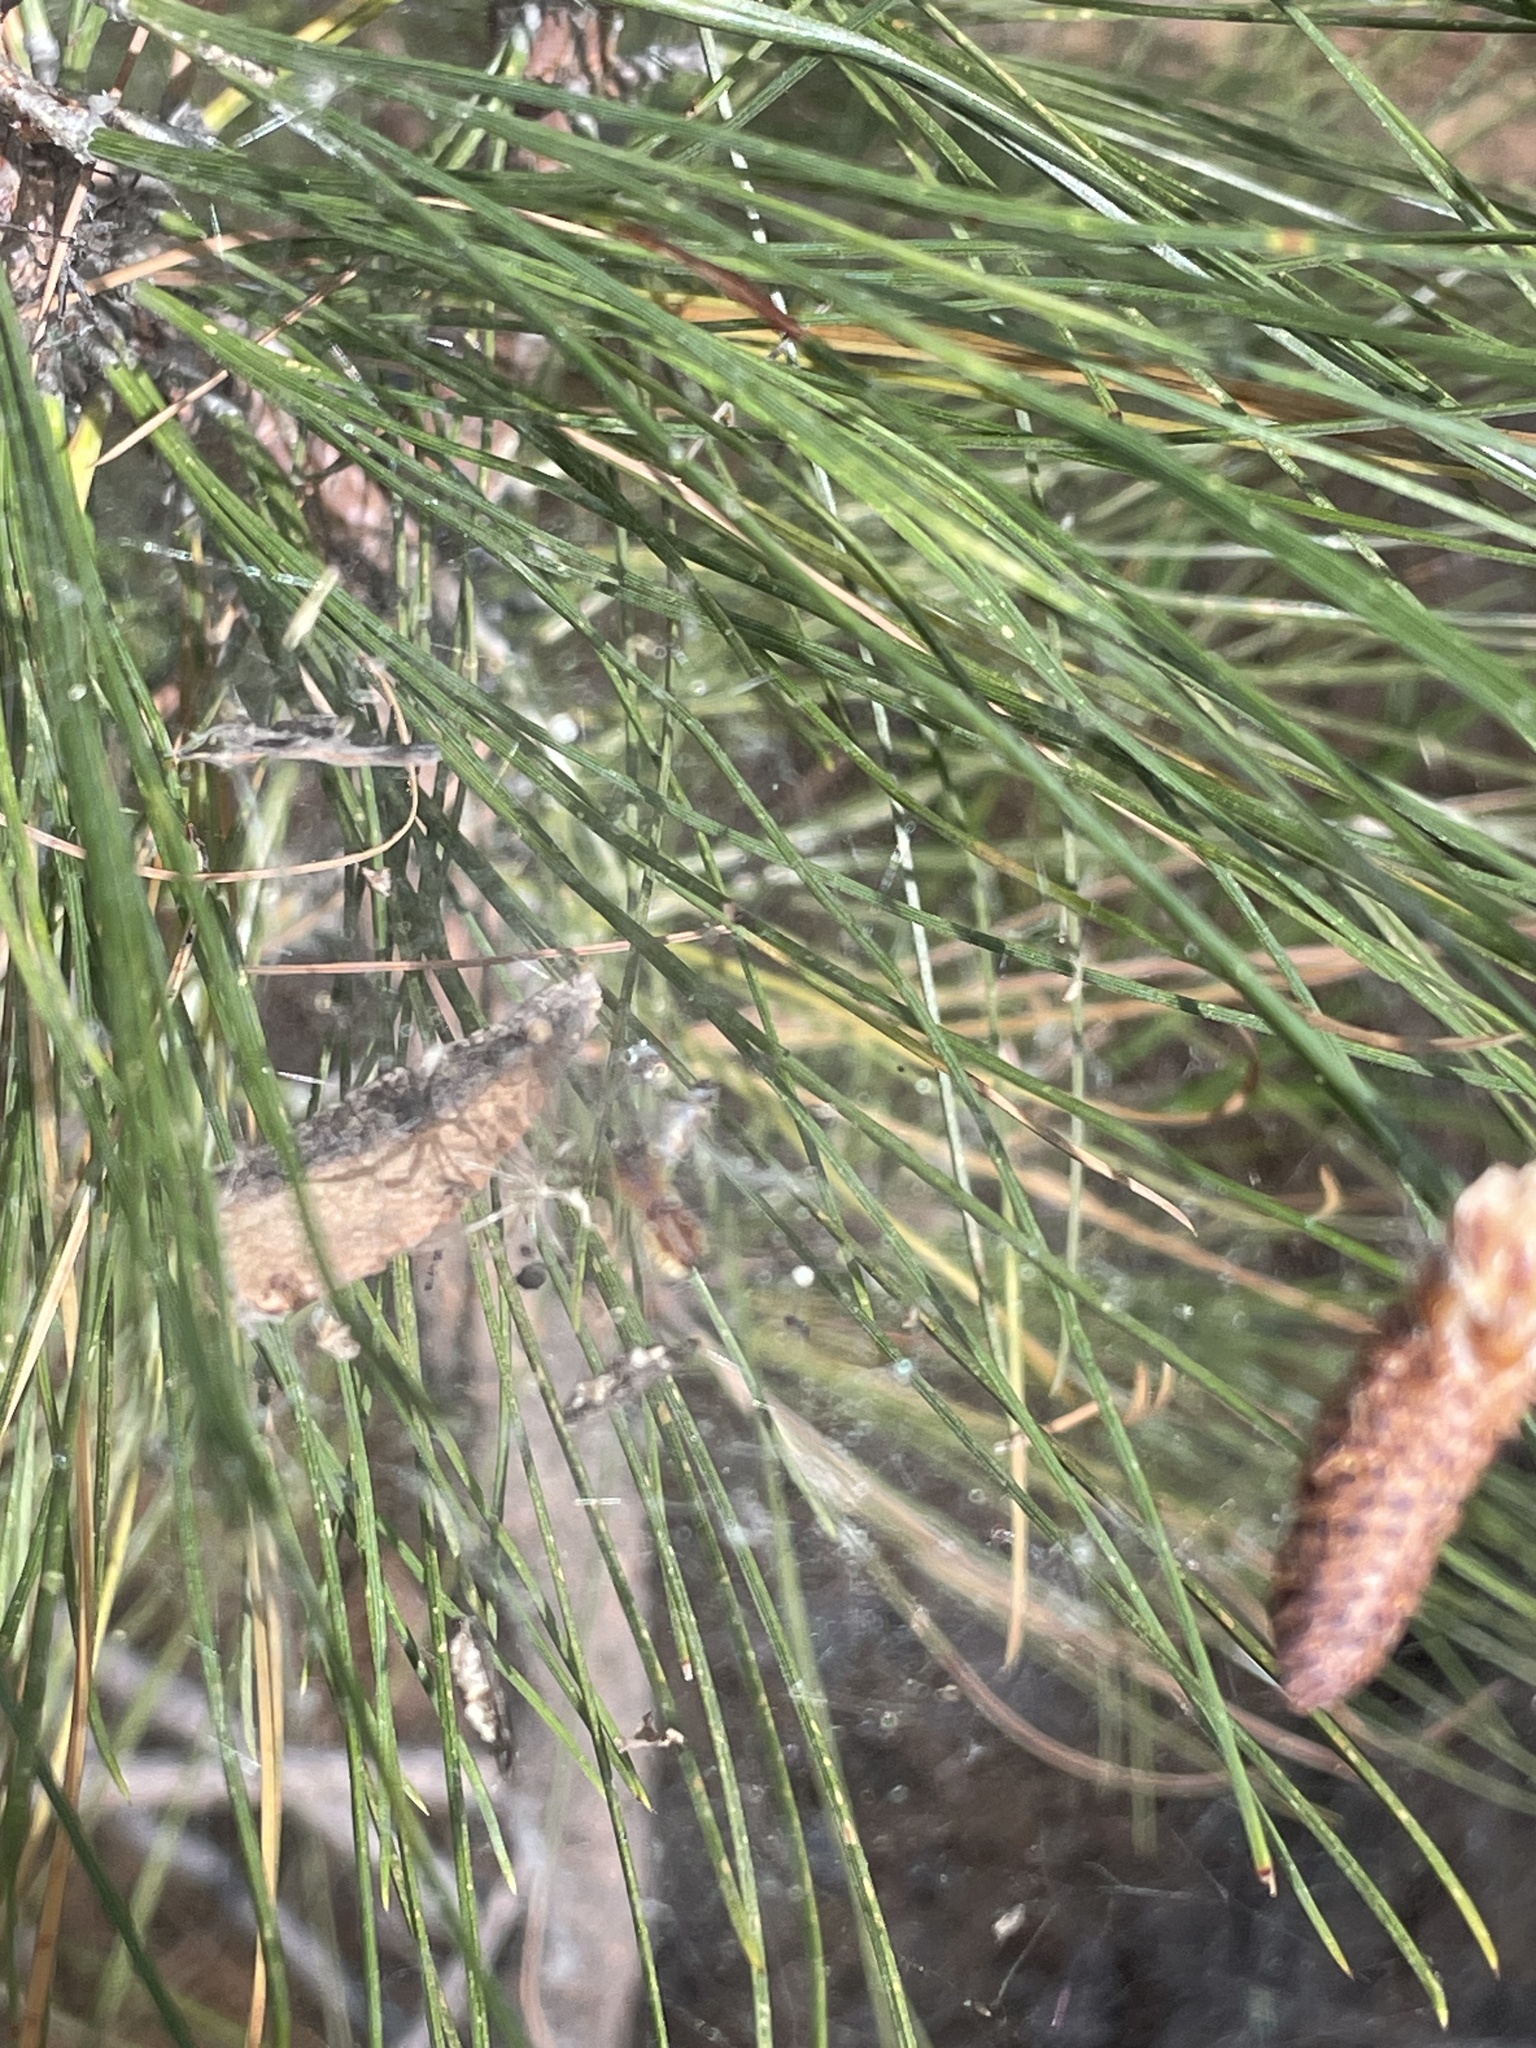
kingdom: Animalia
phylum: Arthropoda
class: Arachnida
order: Araneae
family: Linyphiidae
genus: Frontinella
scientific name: Frontinella pyramitela
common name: Bowl-and-doily spider
